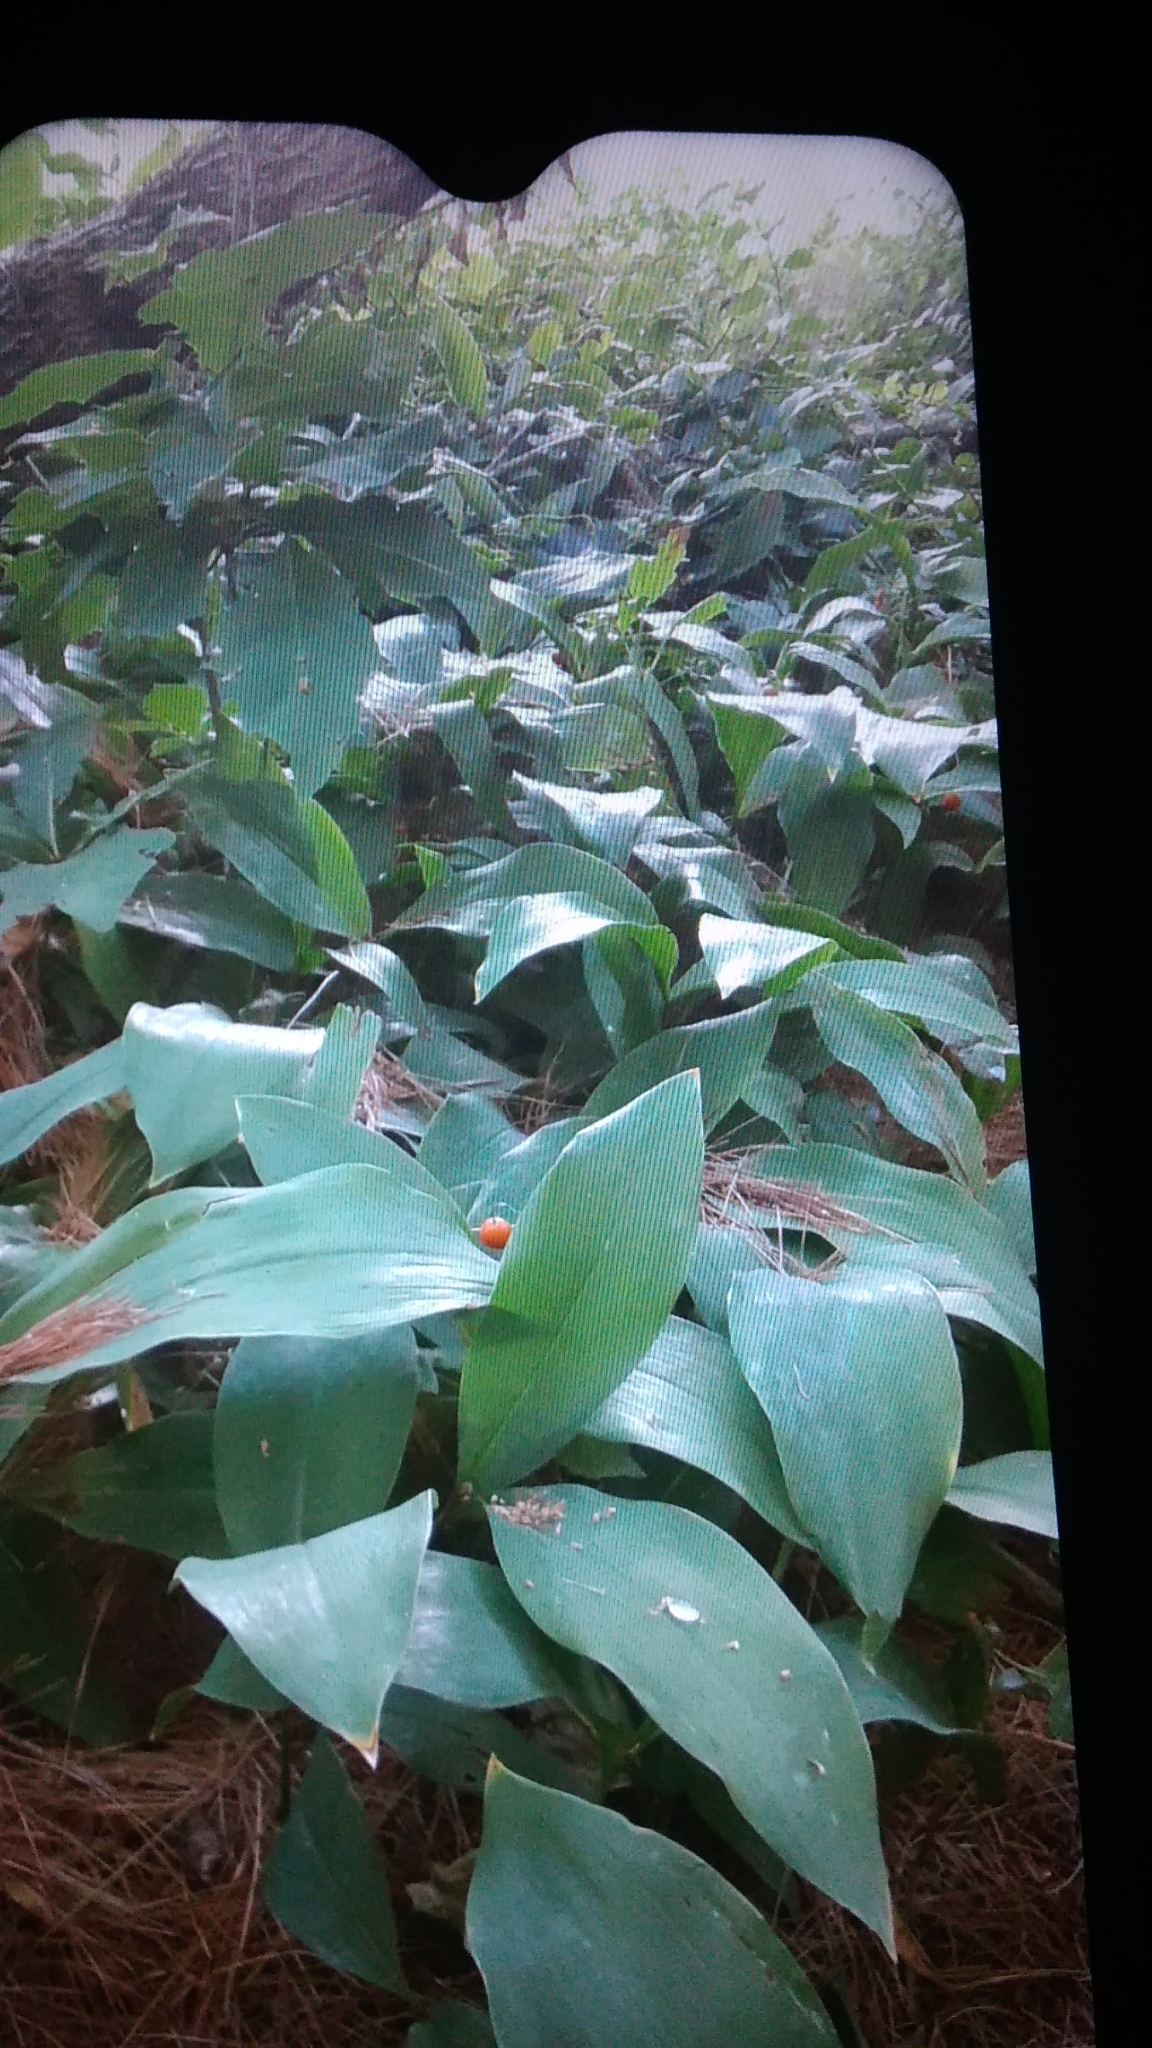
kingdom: Plantae
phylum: Tracheophyta
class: Liliopsida
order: Asparagales
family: Asparagaceae
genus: Convallaria
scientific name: Convallaria majalis
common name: Lily-of-the-valley
